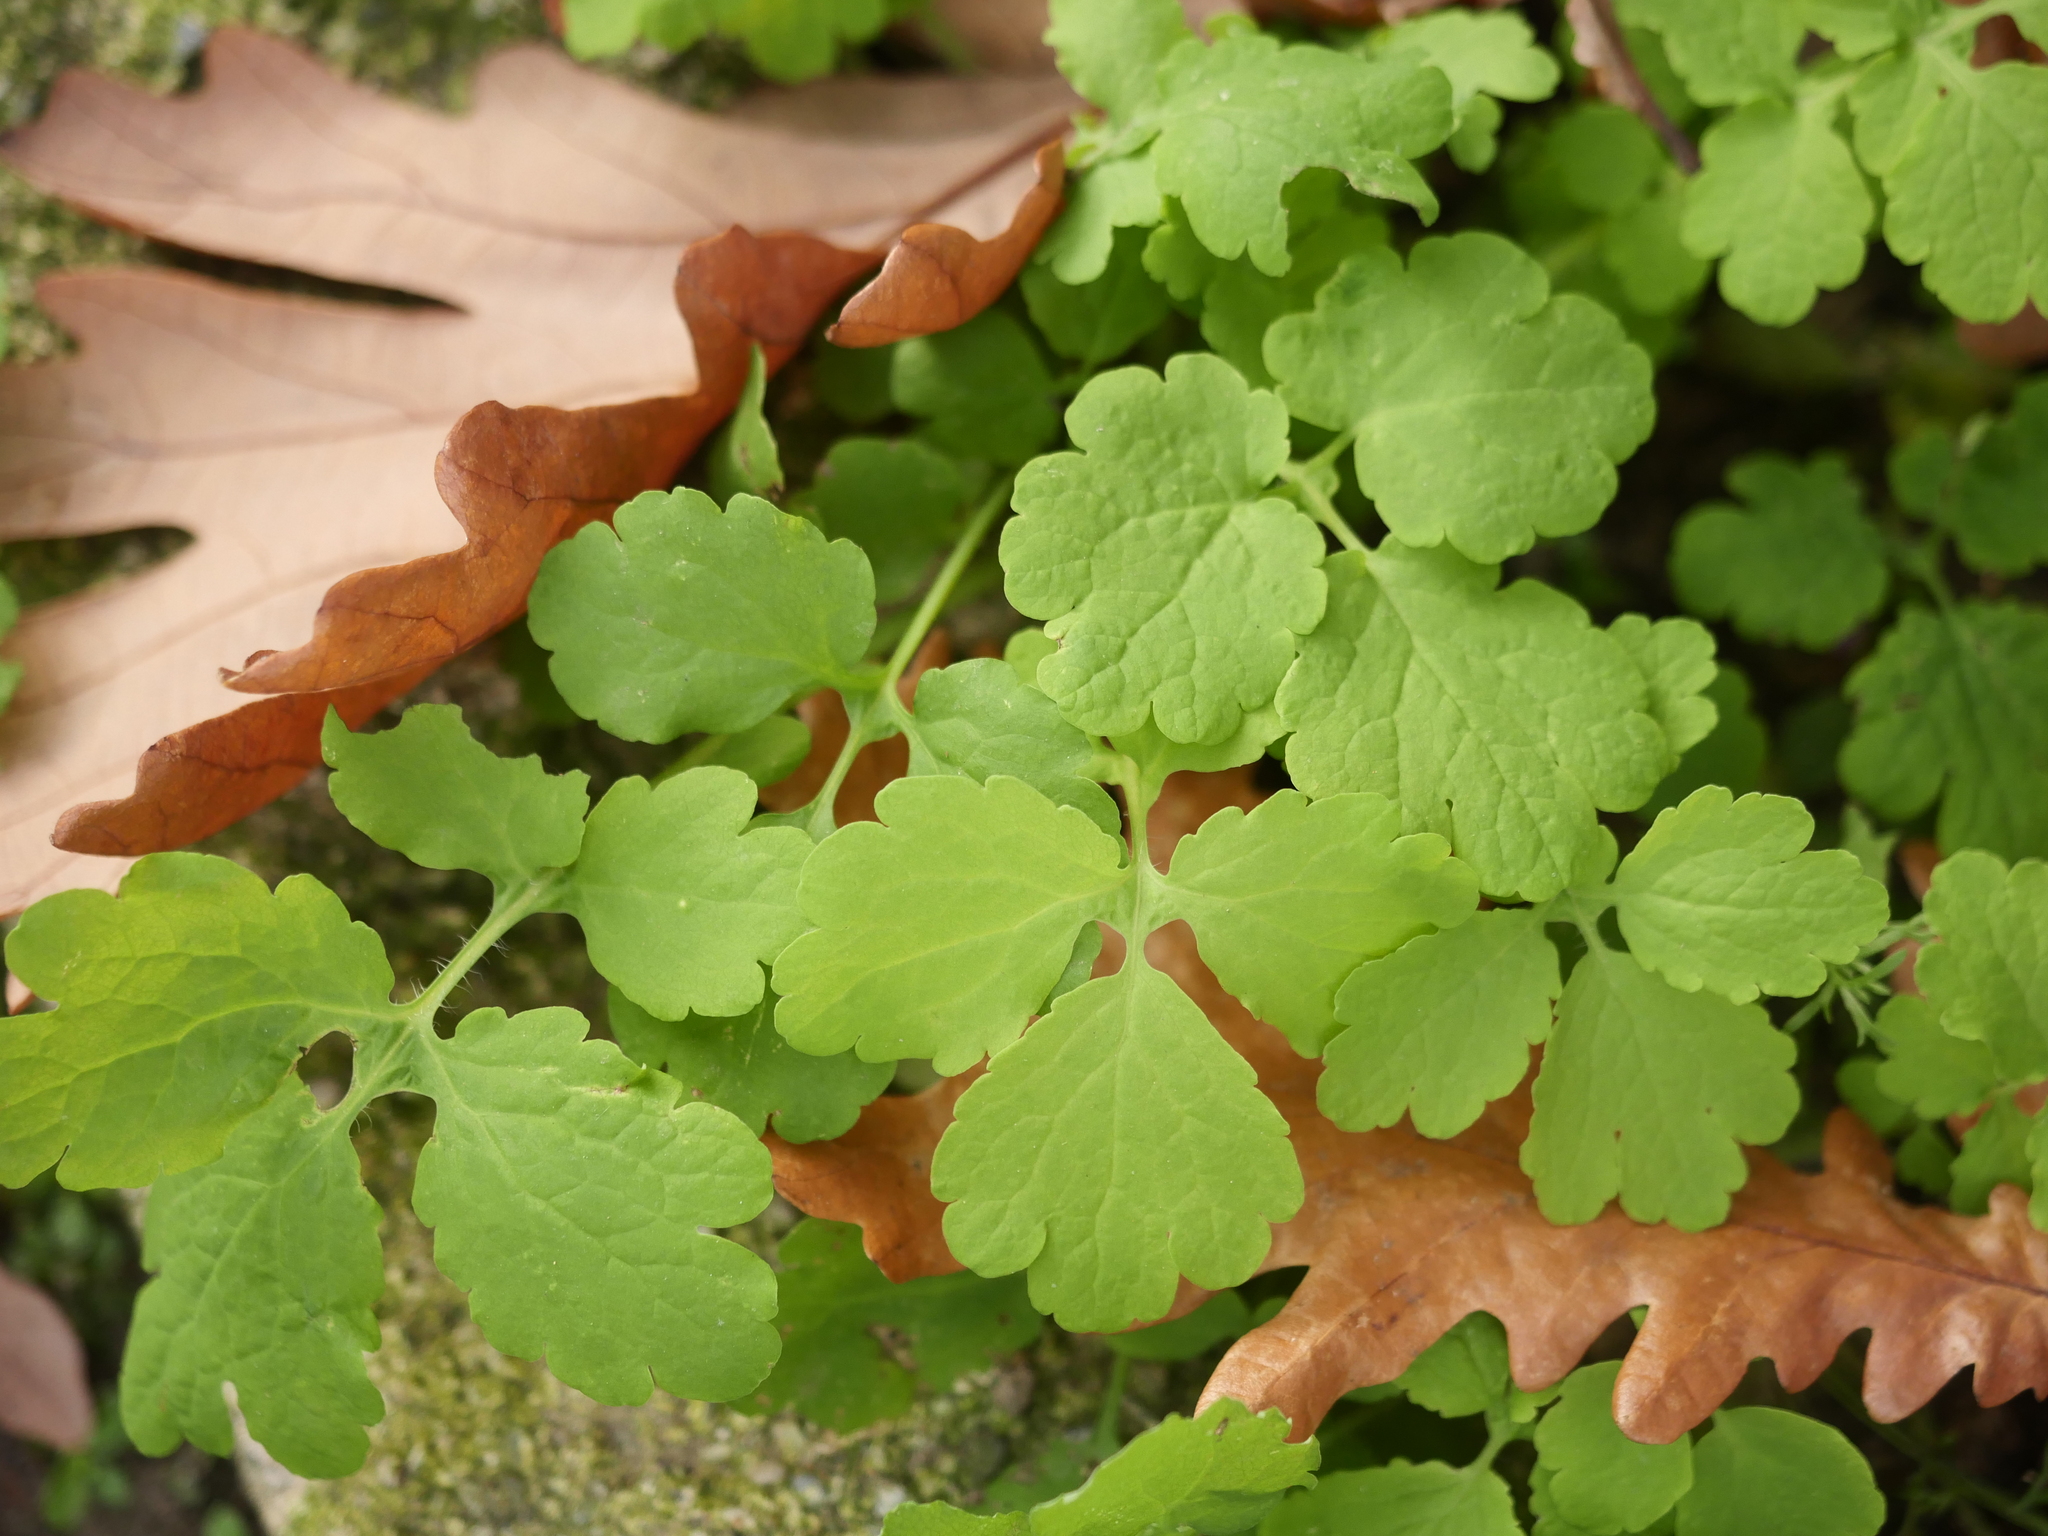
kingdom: Plantae
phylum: Tracheophyta
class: Magnoliopsida
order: Ranunculales
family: Papaveraceae
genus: Chelidonium
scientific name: Chelidonium majus
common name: Greater celandine
